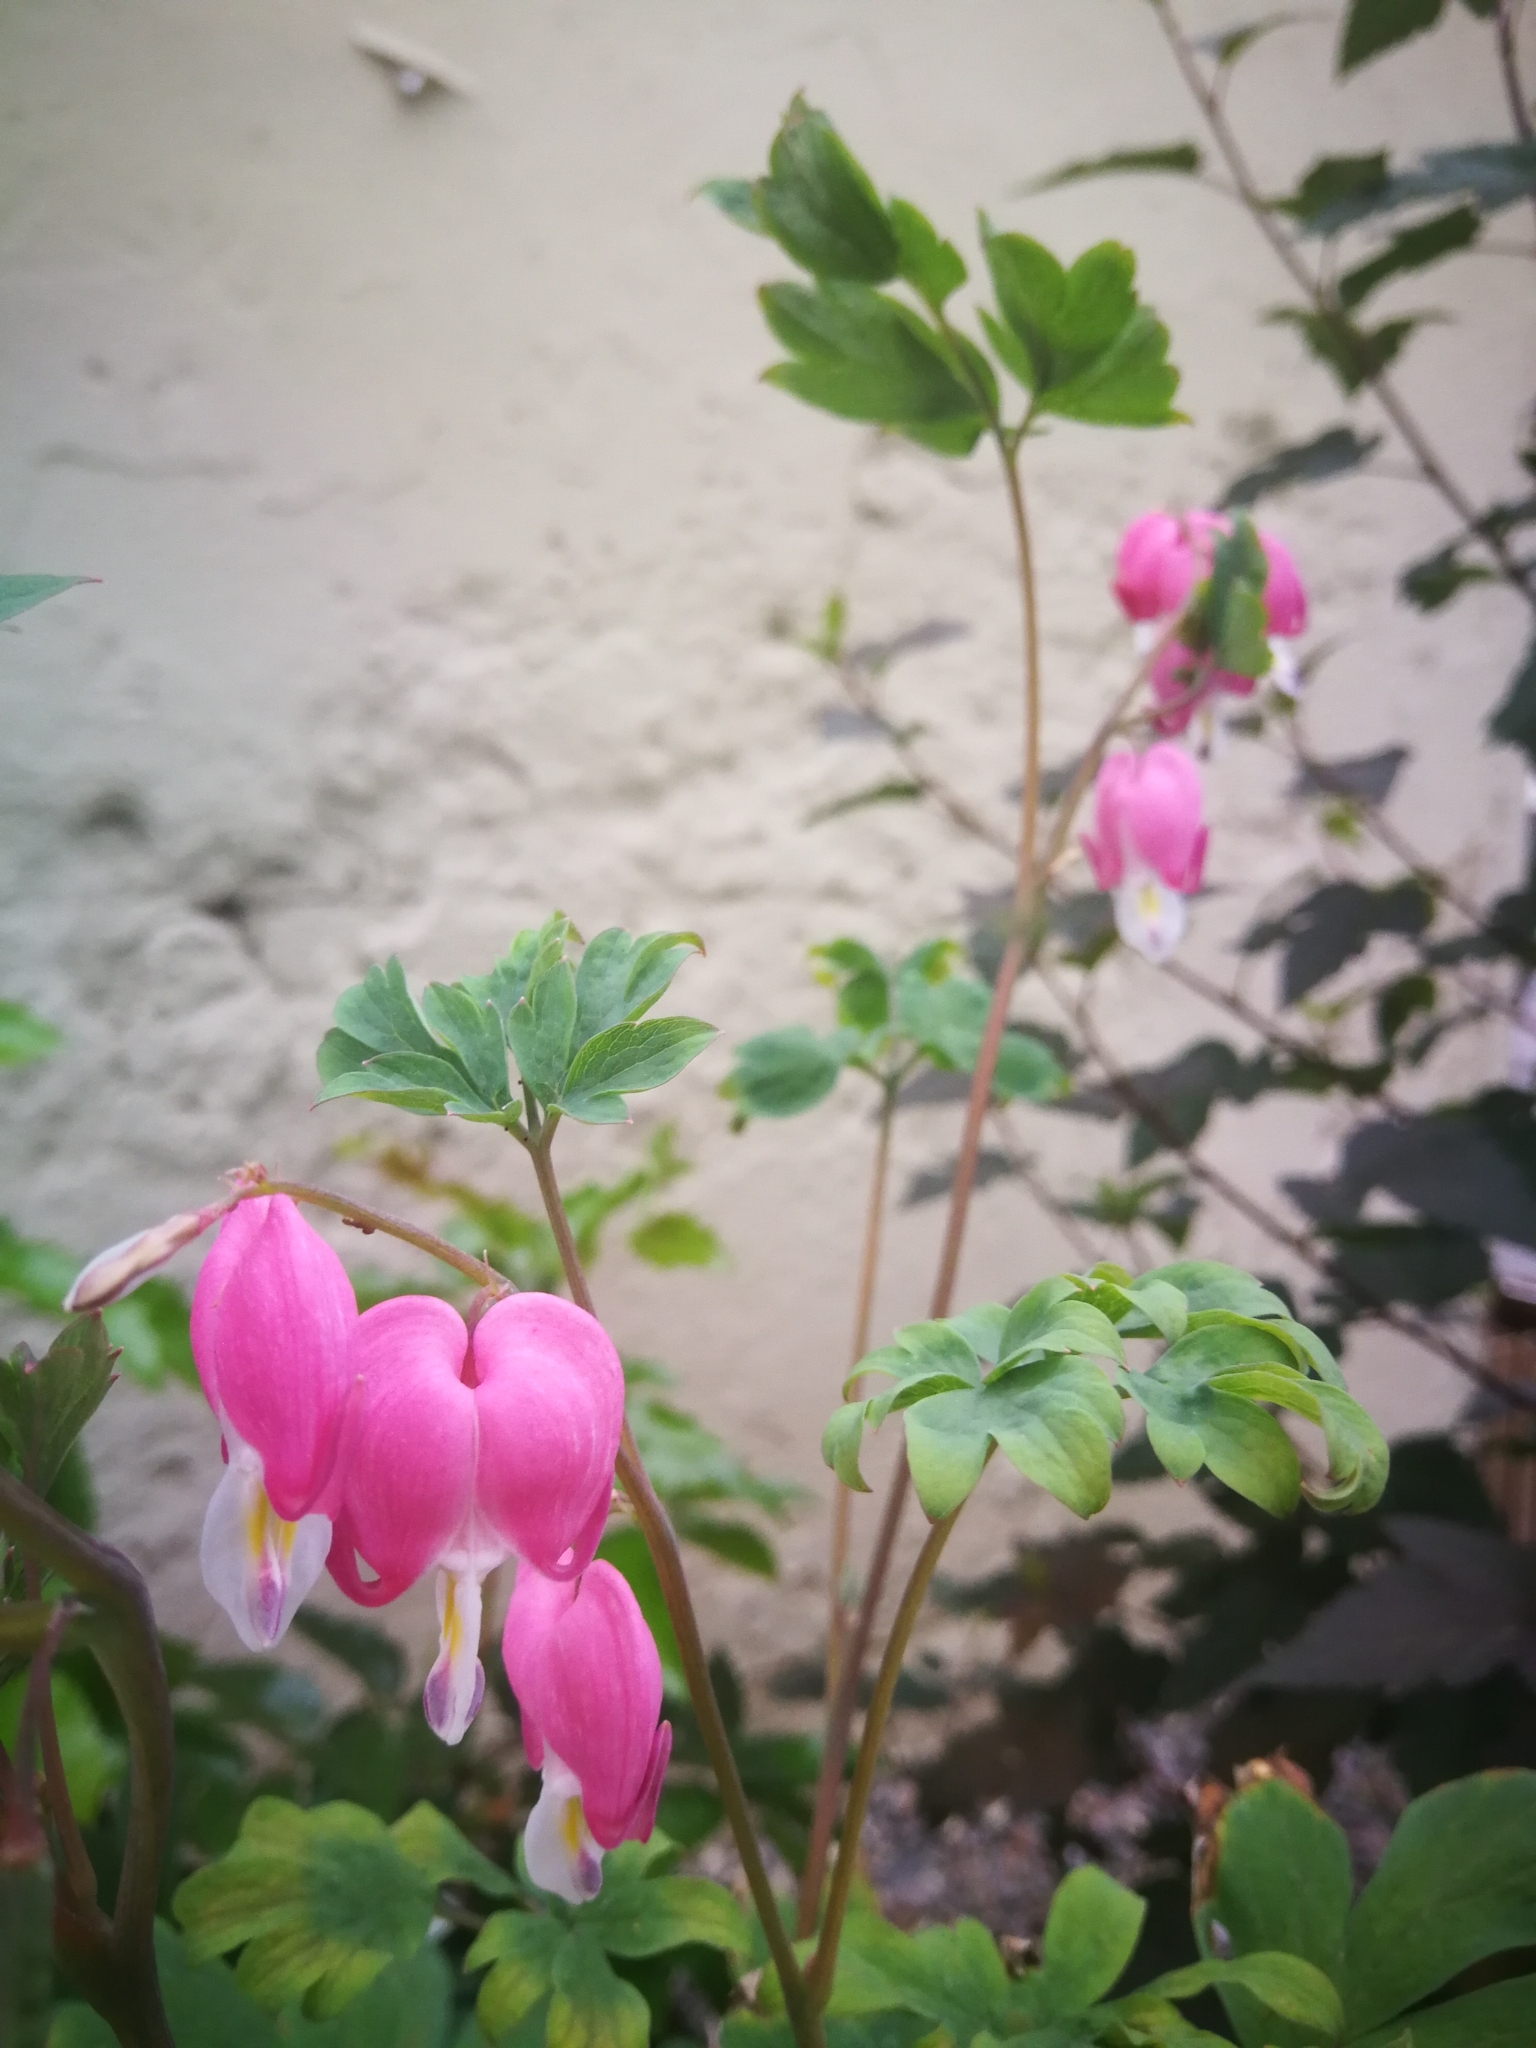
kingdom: Plantae
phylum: Tracheophyta
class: Magnoliopsida
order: Ranunculales
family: Papaveraceae
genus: Lamprocapnos
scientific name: Lamprocapnos spectabilis
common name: Asian bleeding-heart
